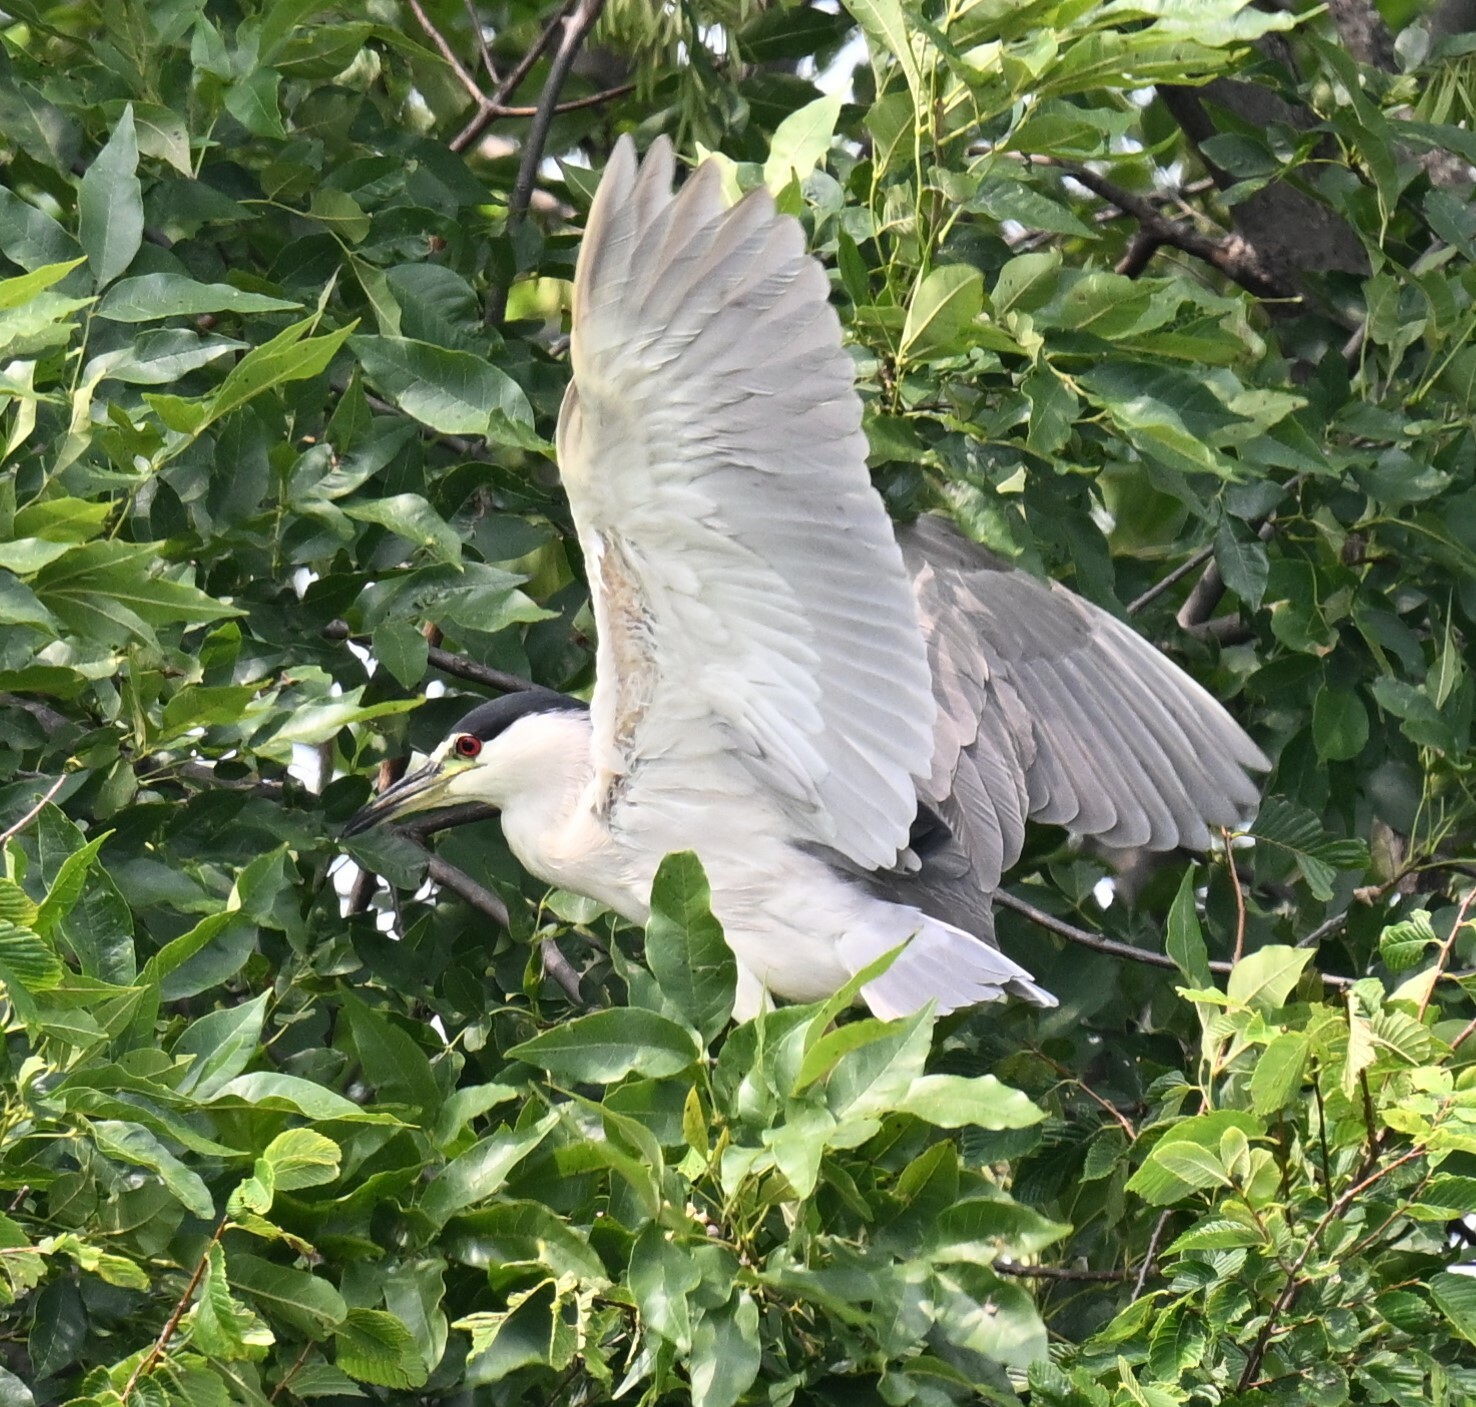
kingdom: Animalia
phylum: Chordata
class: Aves
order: Pelecaniformes
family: Ardeidae
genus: Nycticorax
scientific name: Nycticorax nycticorax
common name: Black-crowned night heron
